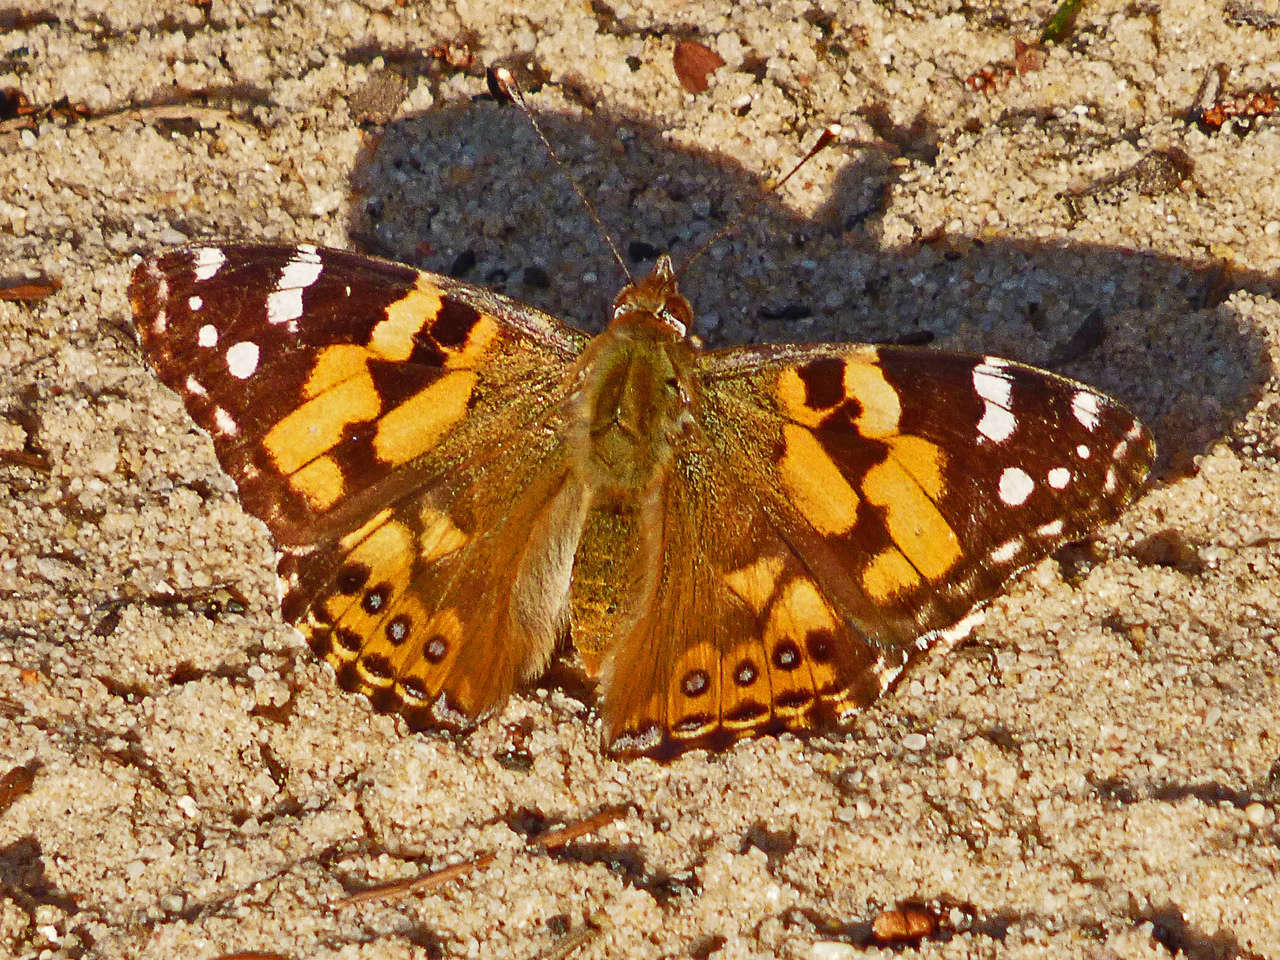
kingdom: Animalia
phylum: Arthropoda
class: Insecta
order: Lepidoptera
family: Nymphalidae
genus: Vanessa
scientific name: Vanessa kershawi
